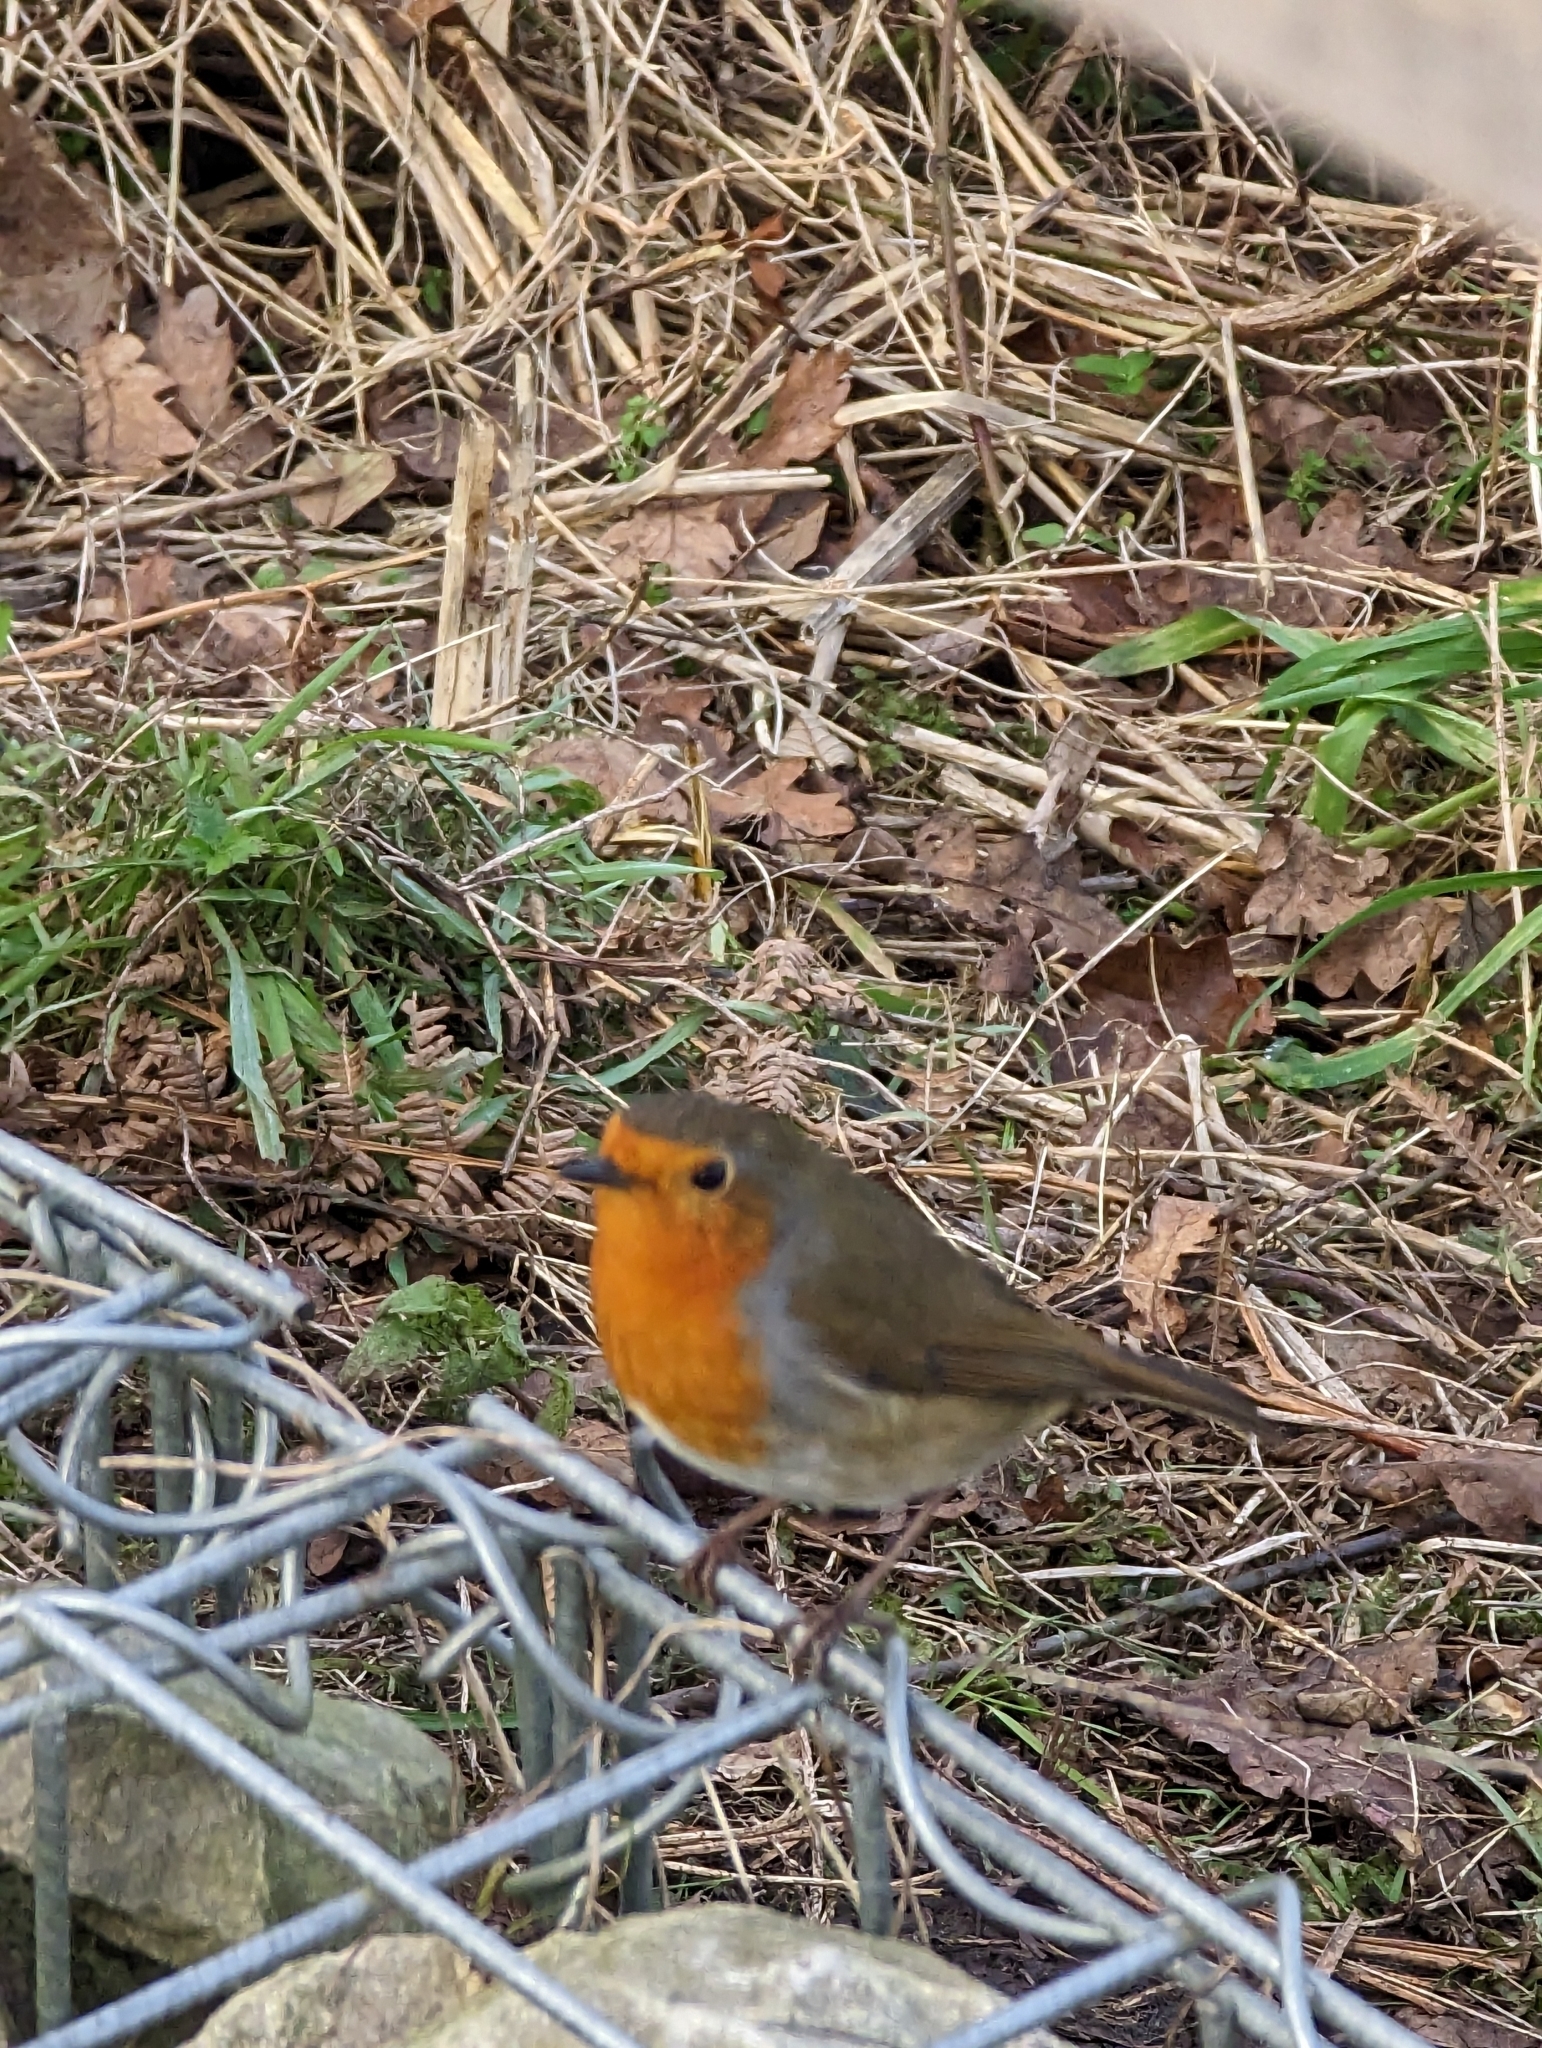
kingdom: Animalia
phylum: Chordata
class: Aves
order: Passeriformes
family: Muscicapidae
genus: Erithacus
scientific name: Erithacus rubecula
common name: European robin
